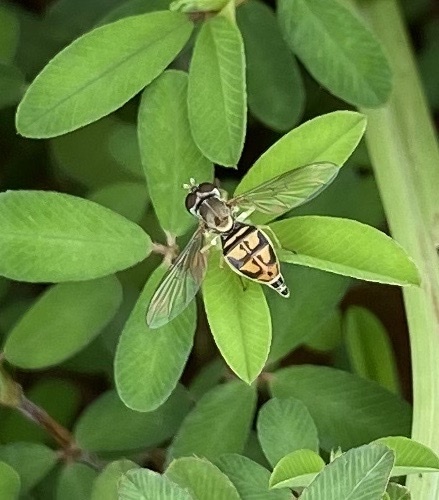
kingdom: Animalia
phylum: Arthropoda
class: Insecta
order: Diptera
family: Syrphidae
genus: Toxomerus
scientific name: Toxomerus marginatus
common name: Syrphid fly
